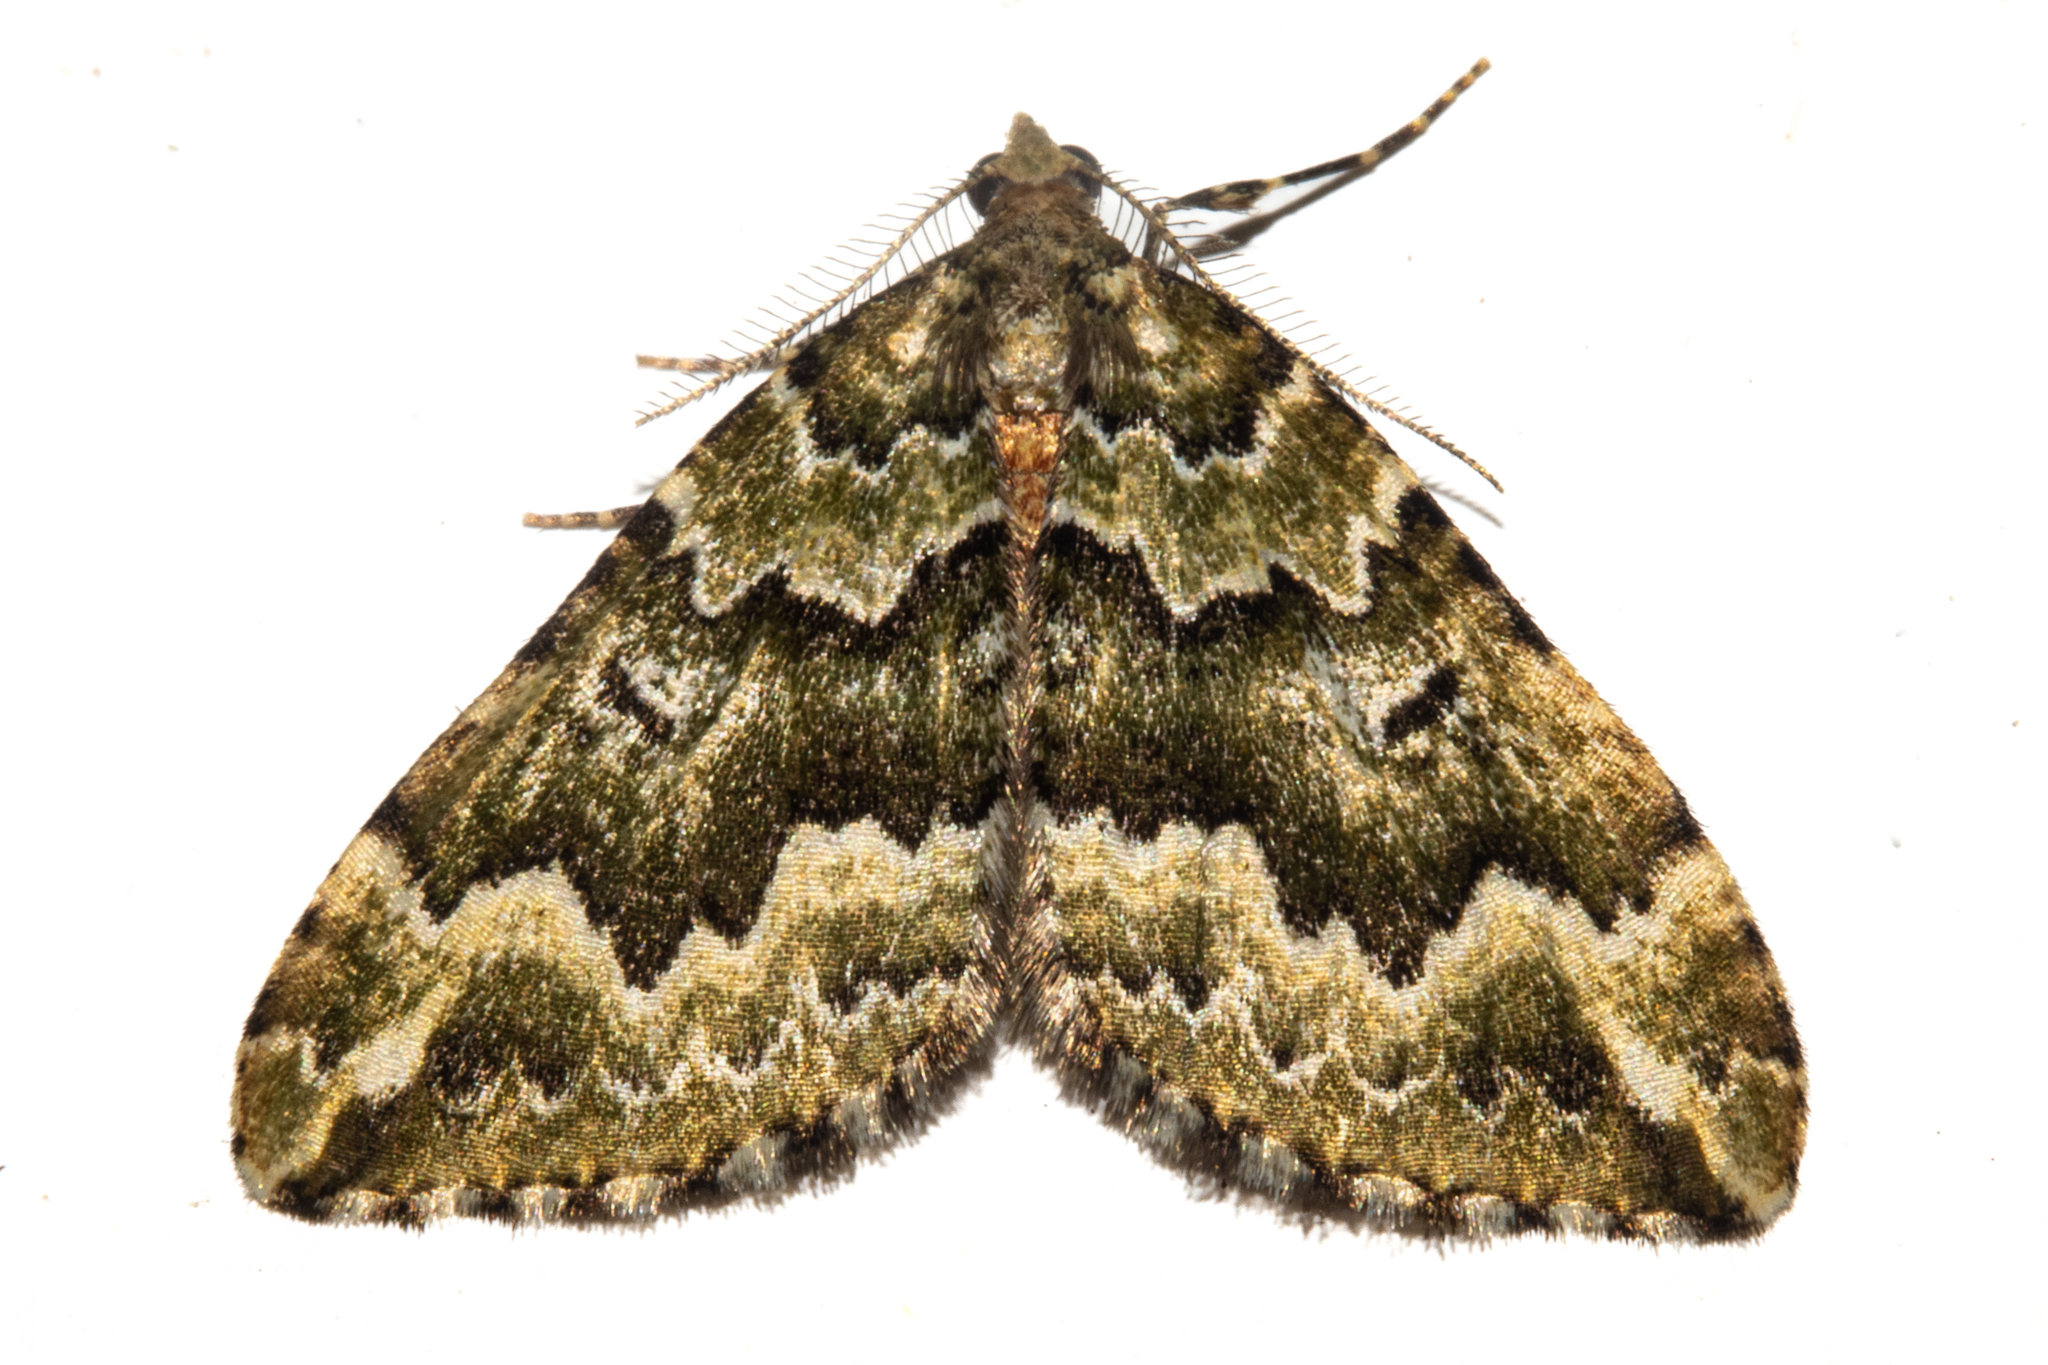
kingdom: Animalia
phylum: Arthropoda
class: Insecta
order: Lepidoptera
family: Geometridae
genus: Asaphodes
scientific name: Asaphodes beata
